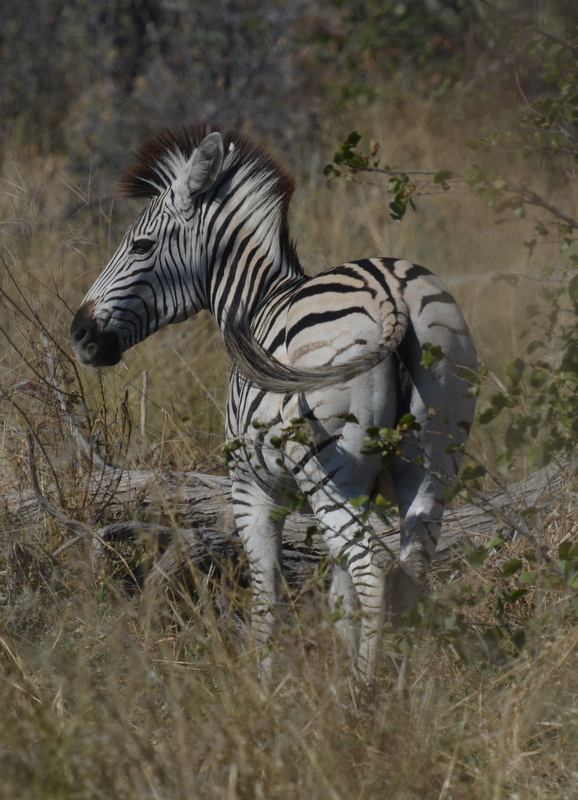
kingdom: Animalia
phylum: Chordata
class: Mammalia
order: Perissodactyla
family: Equidae
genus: Equus
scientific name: Equus quagga
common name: Plains zebra
